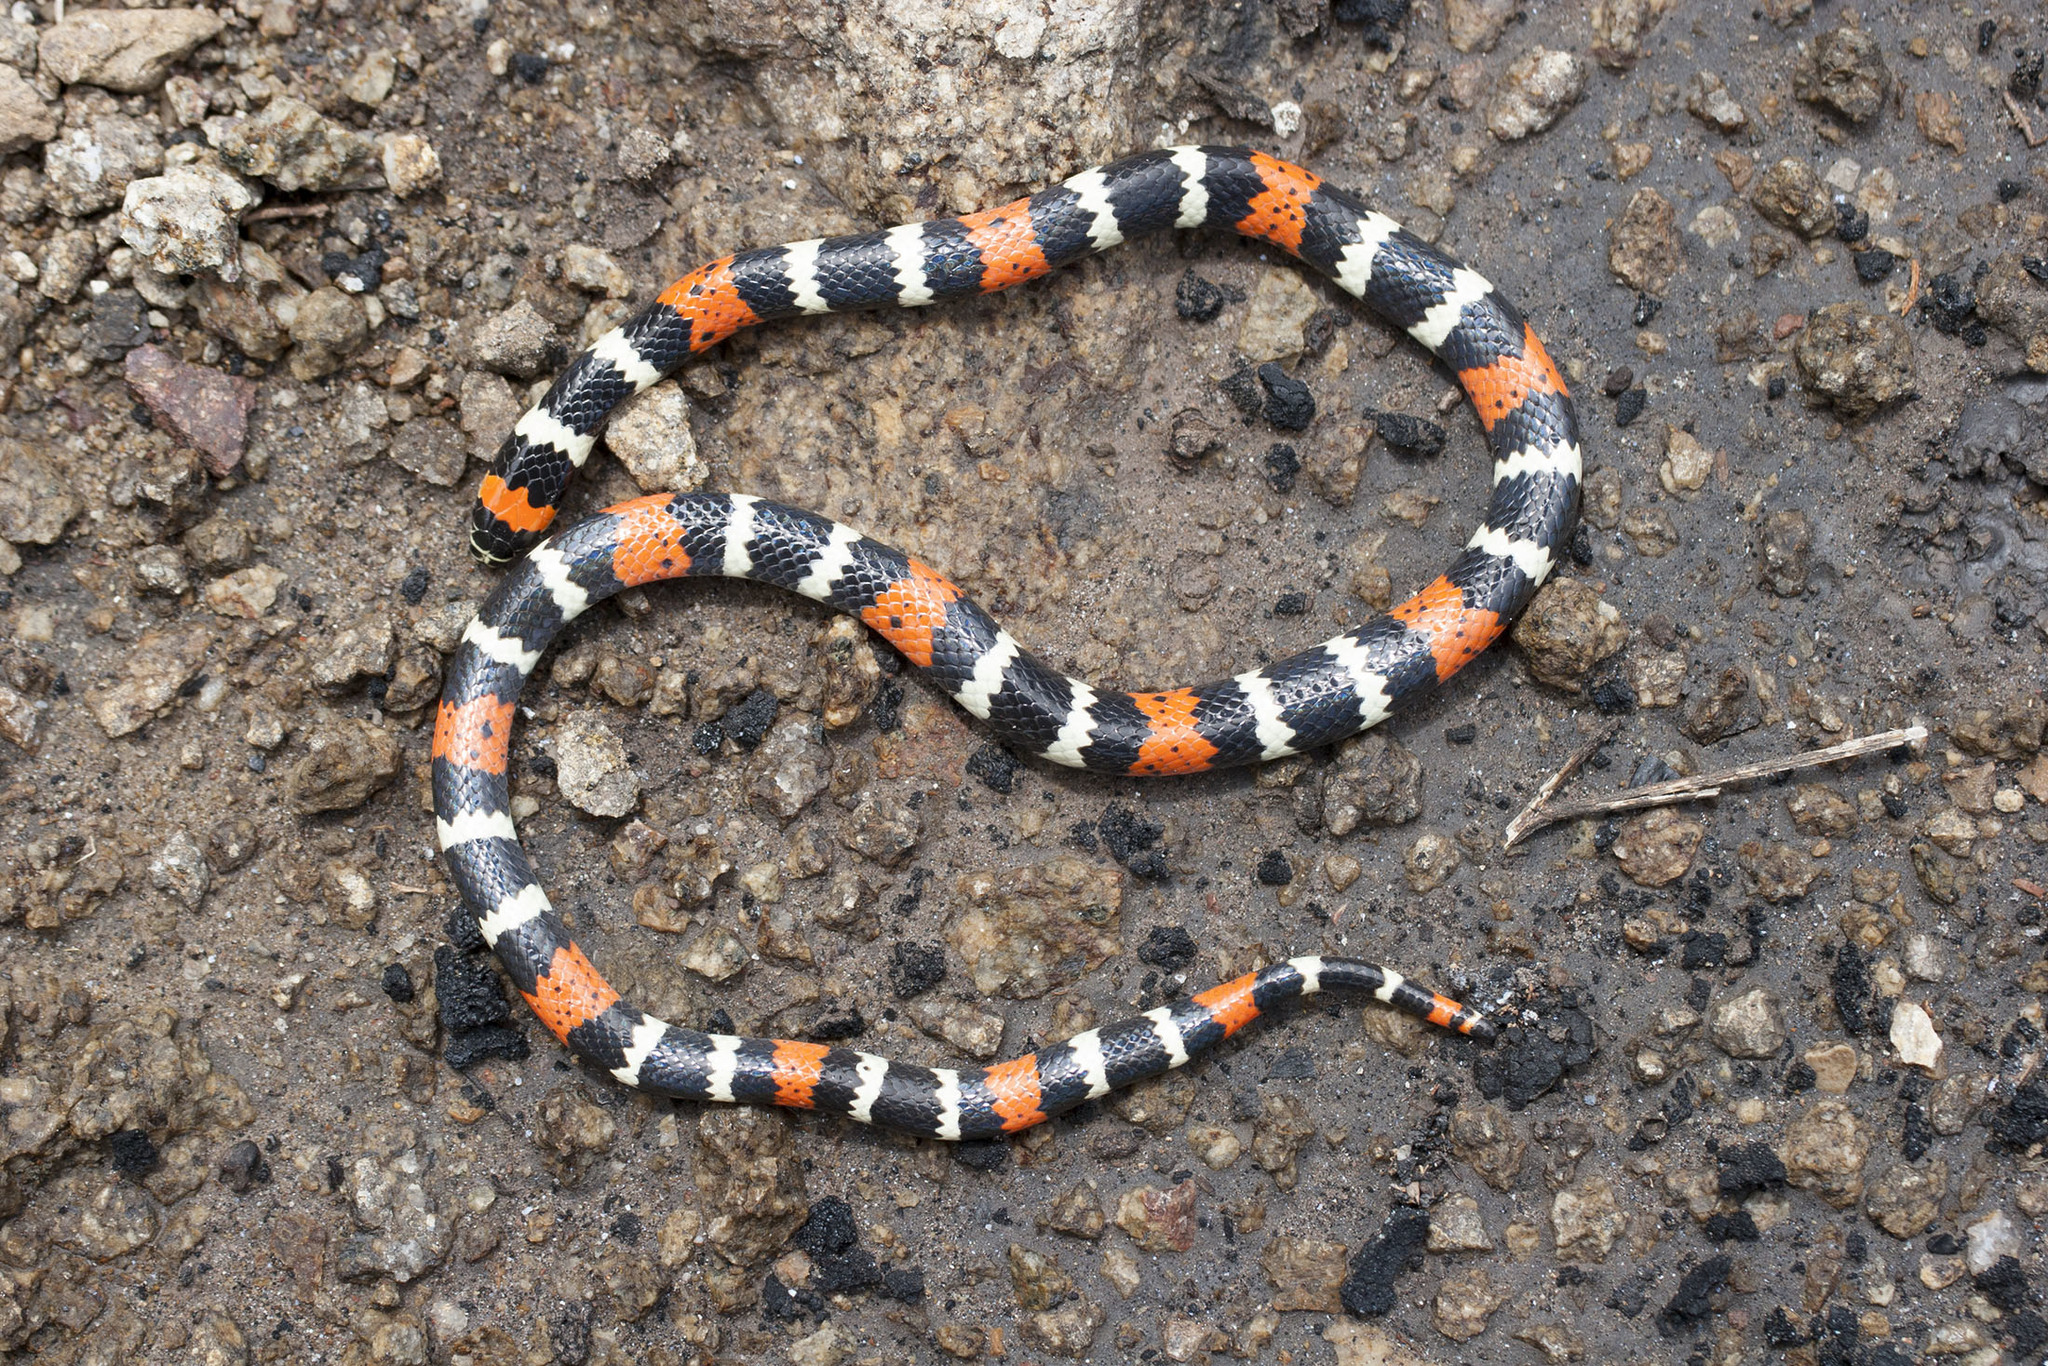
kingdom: Animalia
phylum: Chordata
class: Squamata
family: Elapidae
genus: Micrurus
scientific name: Micrurus tschudii
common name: Desert coral snake
